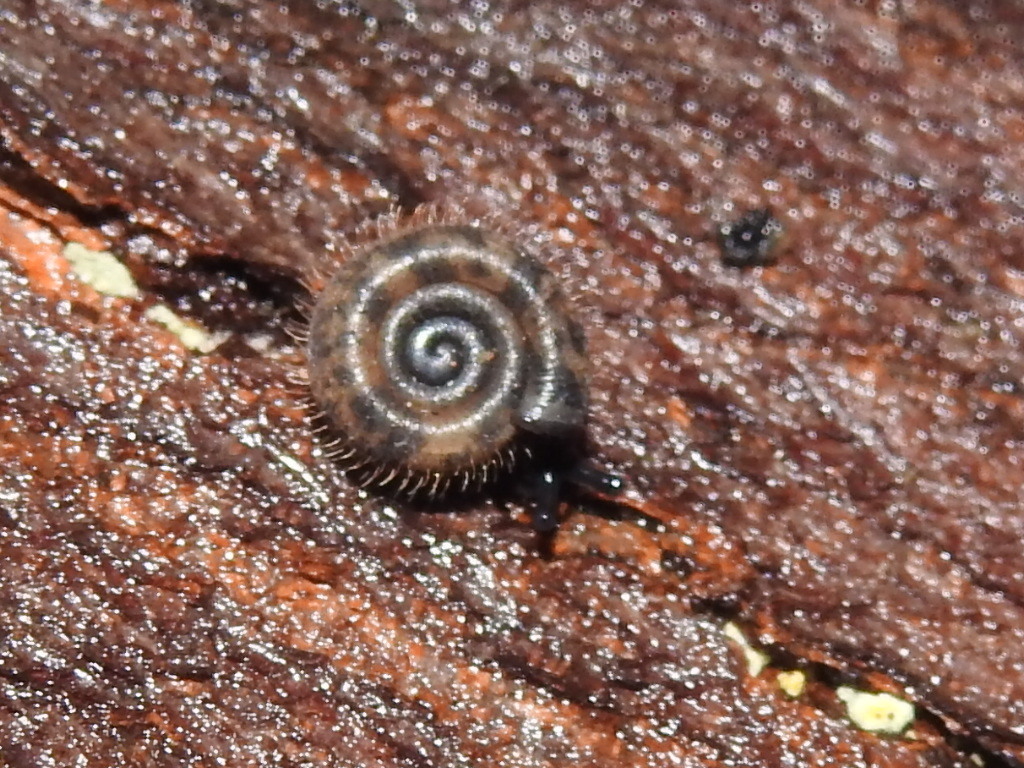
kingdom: Animalia
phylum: Mollusca
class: Gastropoda
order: Stylommatophora
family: Helicodontidae
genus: Helicodonta
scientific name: Helicodonta obvoluta
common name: Cheese snail
